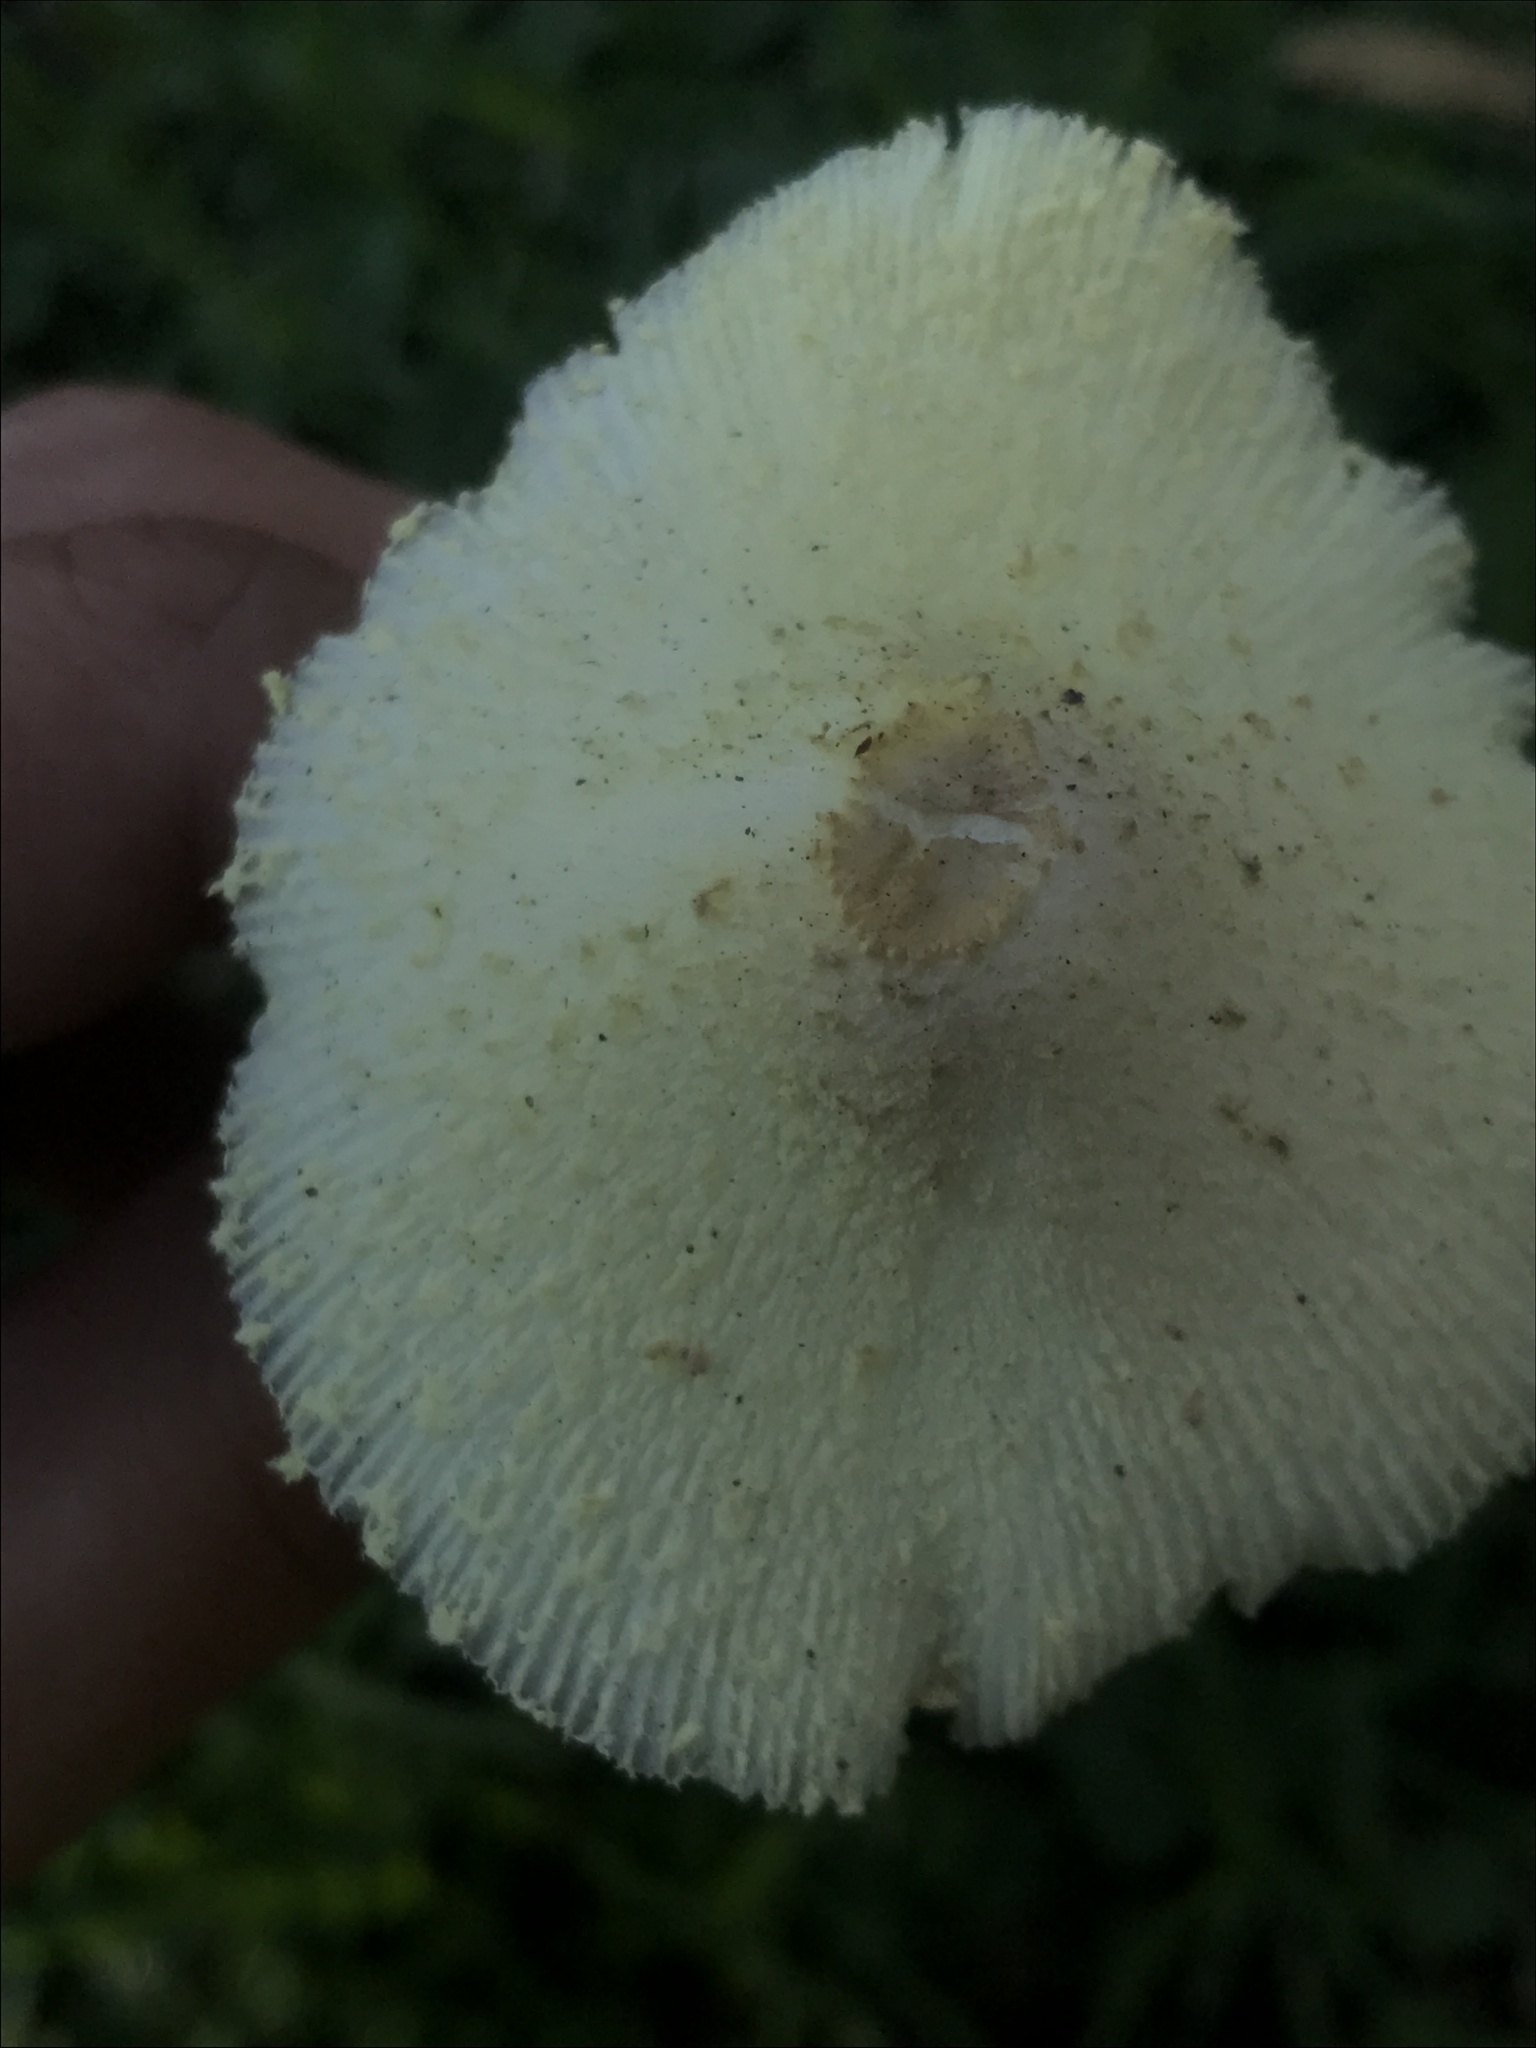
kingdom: Fungi
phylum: Basidiomycota
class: Agaricomycetes
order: Agaricales
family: Agaricaceae
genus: Leucocoprinus
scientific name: Leucocoprinus birnbaumii
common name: Plantpot dapperling
